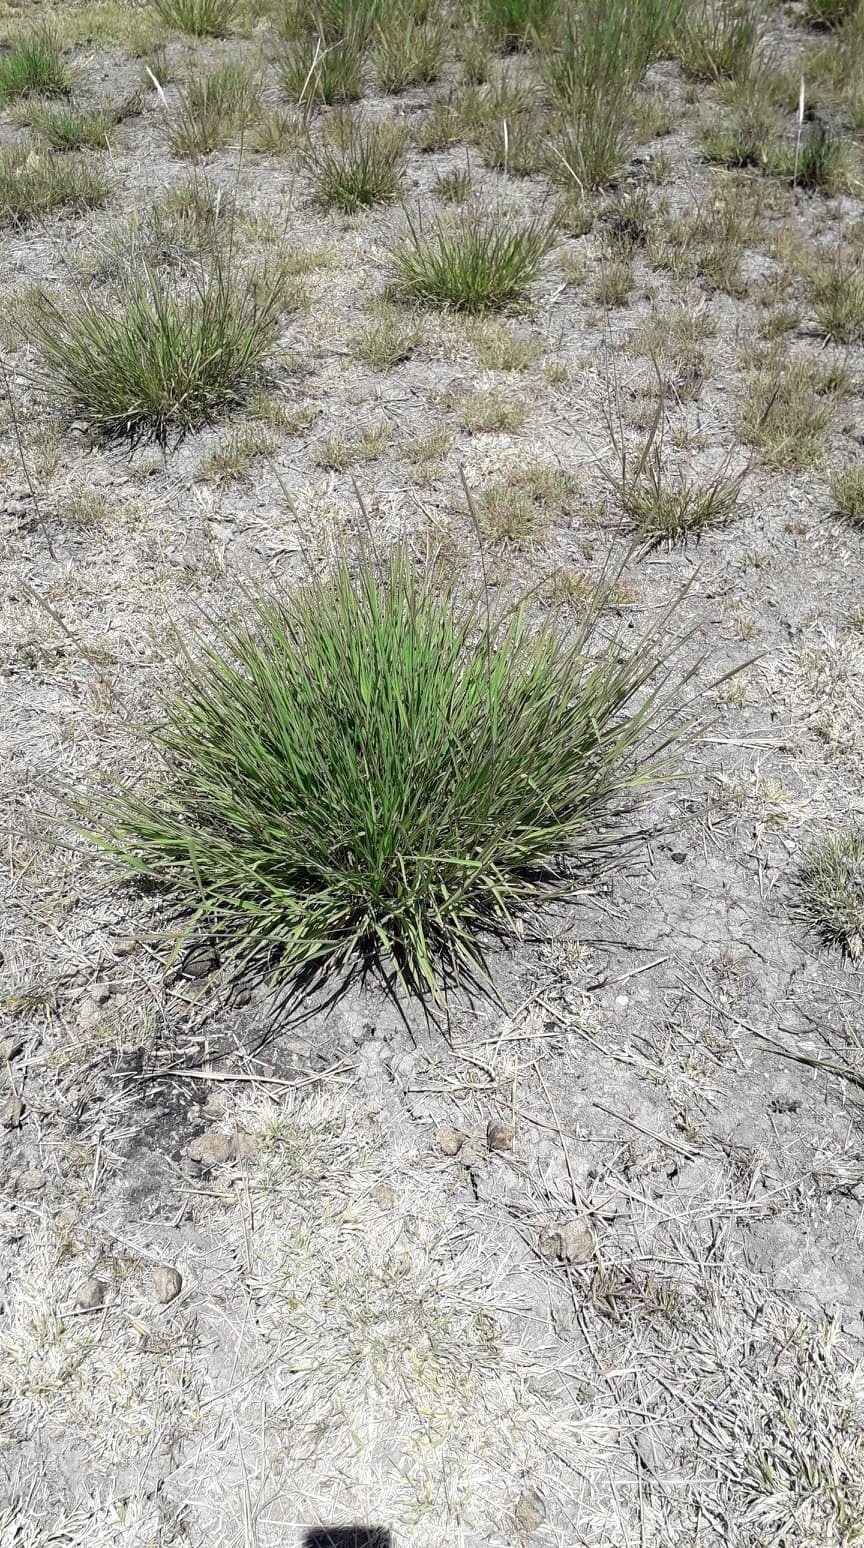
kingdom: Plantae
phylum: Tracheophyta
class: Liliopsida
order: Poales
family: Poaceae
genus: Bothriochloa
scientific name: Bothriochloa barbinodis
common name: Cane bluestem
